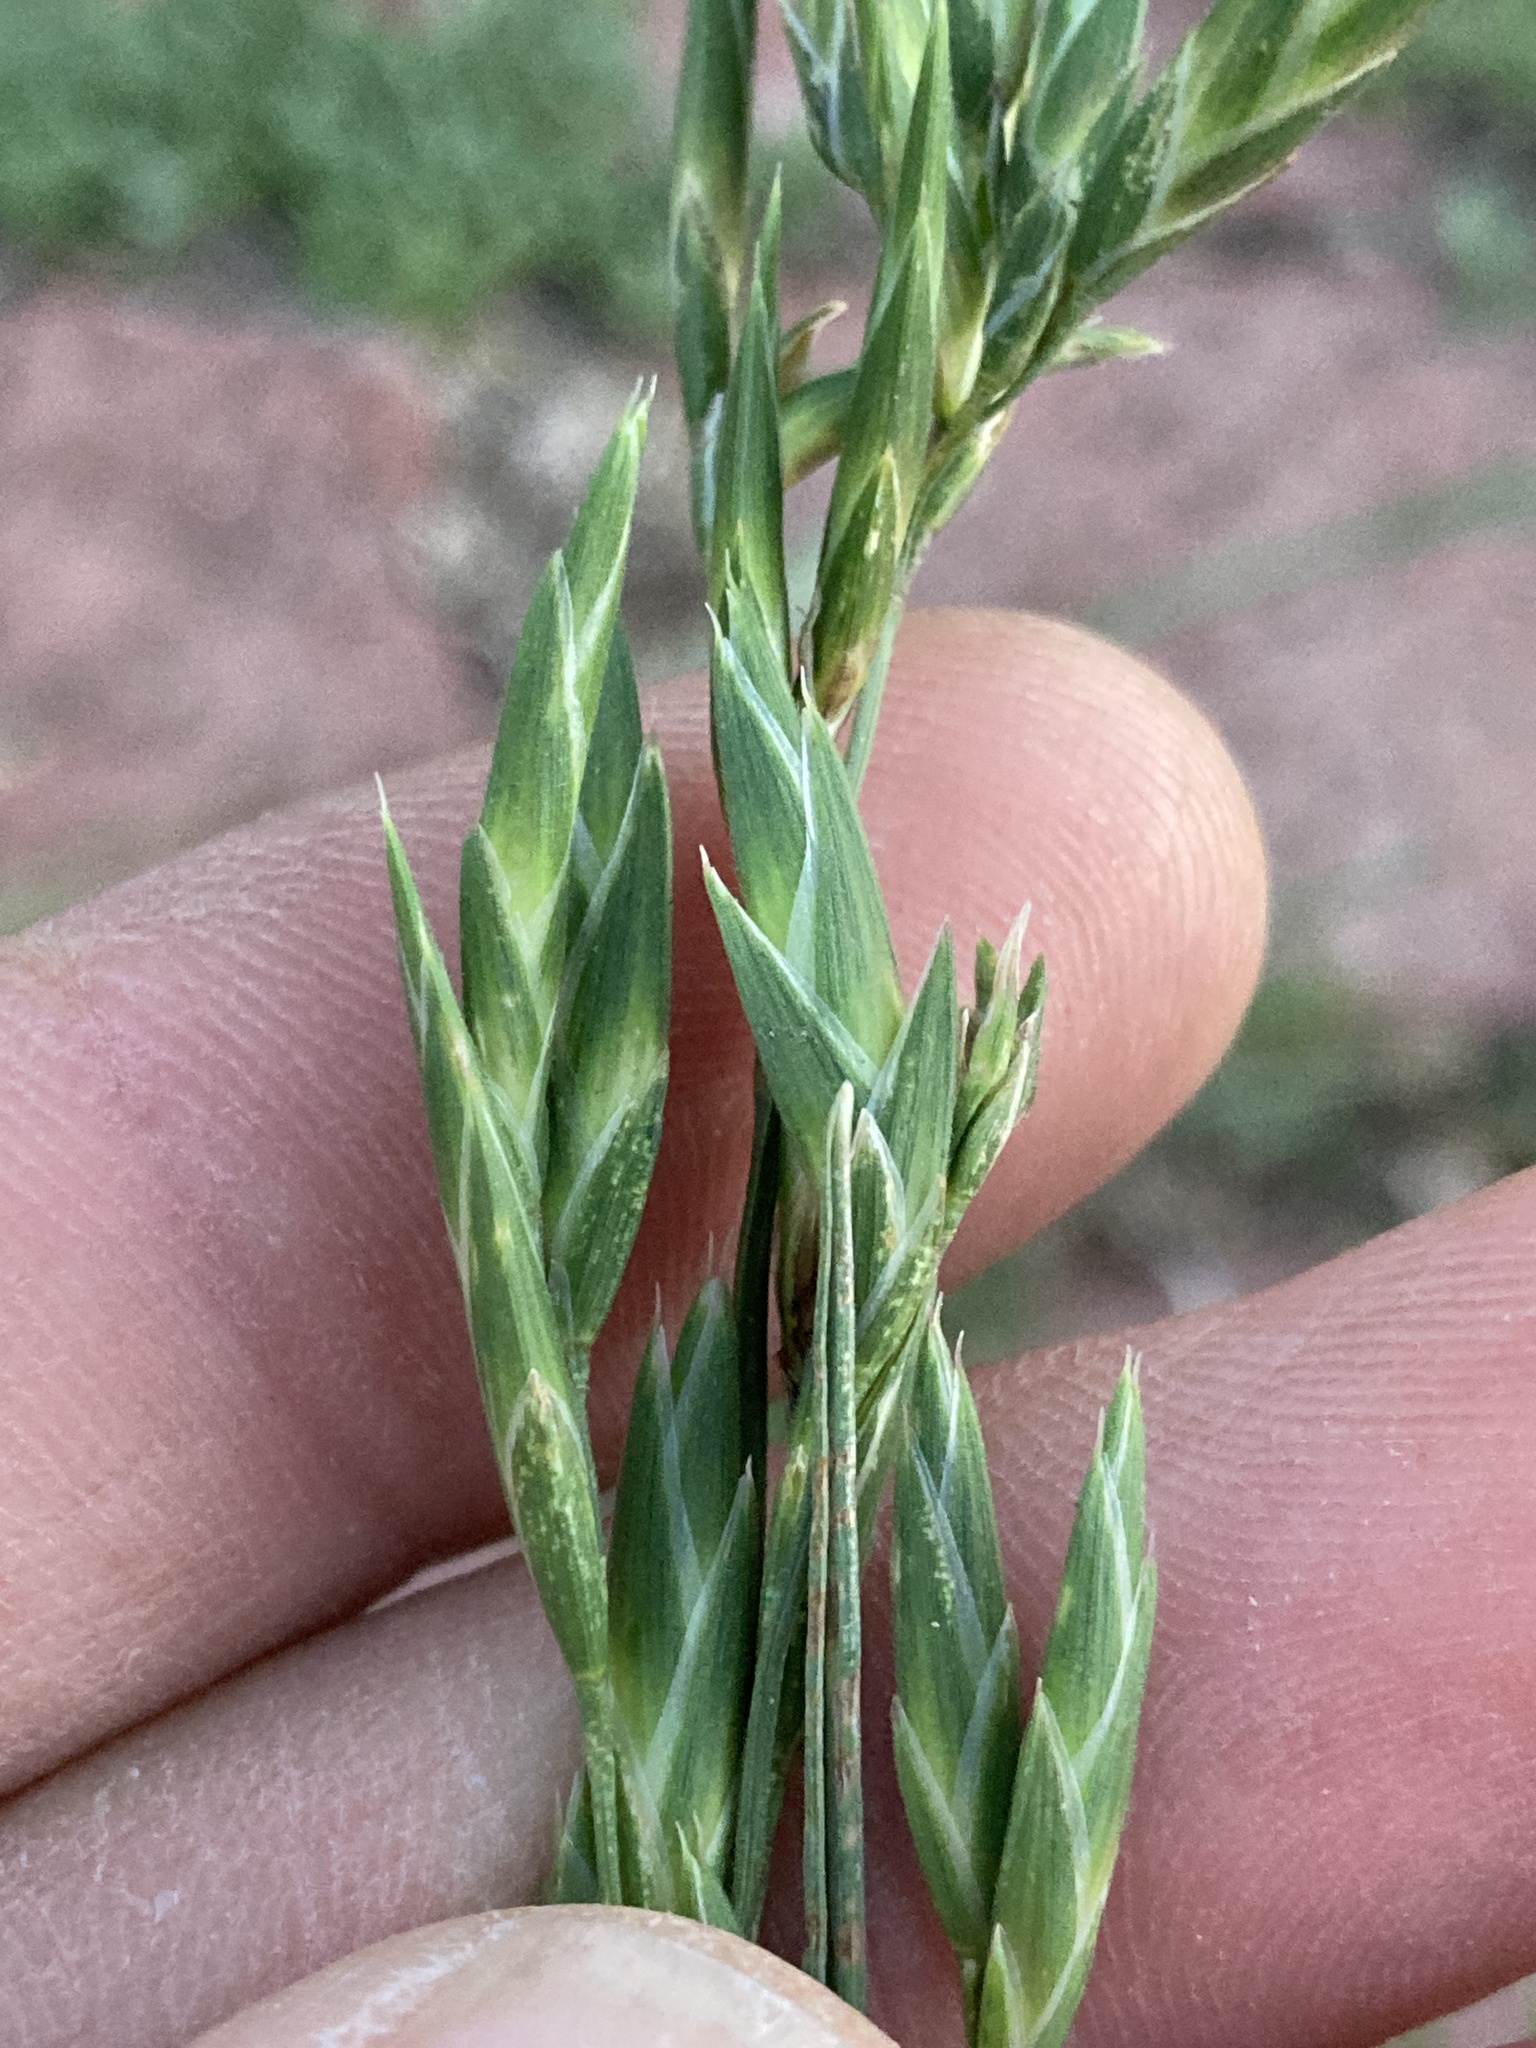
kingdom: Plantae
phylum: Tracheophyta
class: Liliopsida
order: Poales
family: Poaceae
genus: Bromus
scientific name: Bromus catharticus
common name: Rescuegrass
